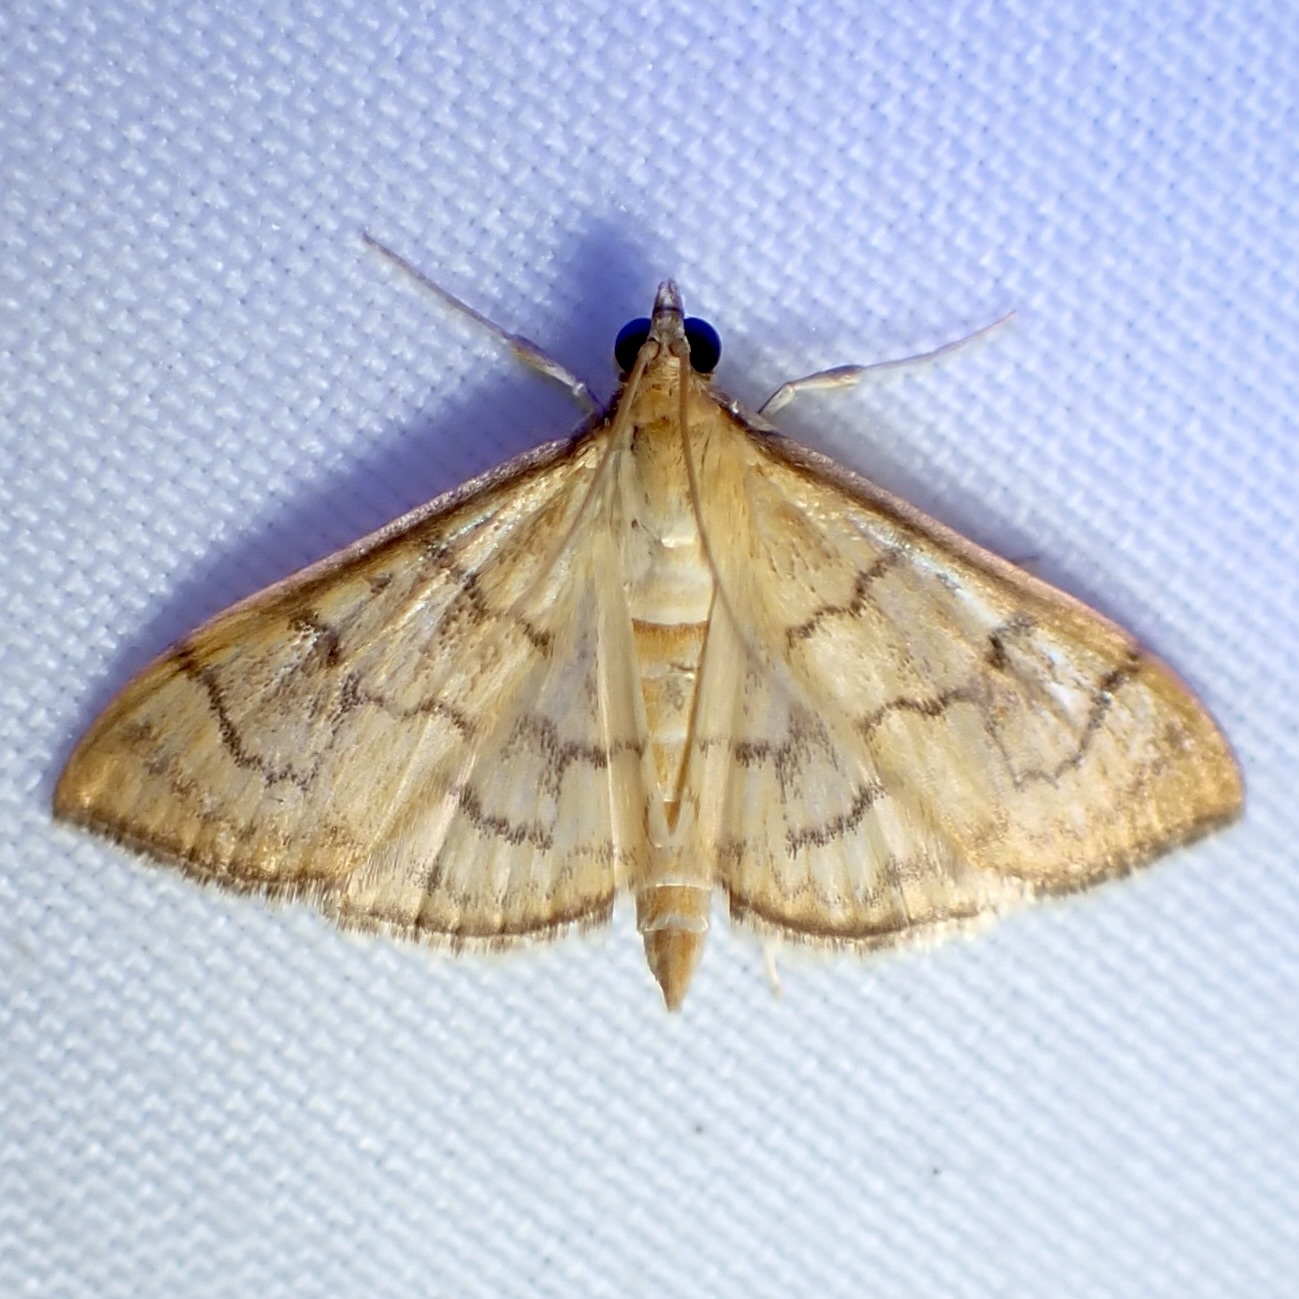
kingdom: Animalia
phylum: Arthropoda
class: Insecta
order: Lepidoptera
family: Crambidae
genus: Anania
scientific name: Anania labeculalis
